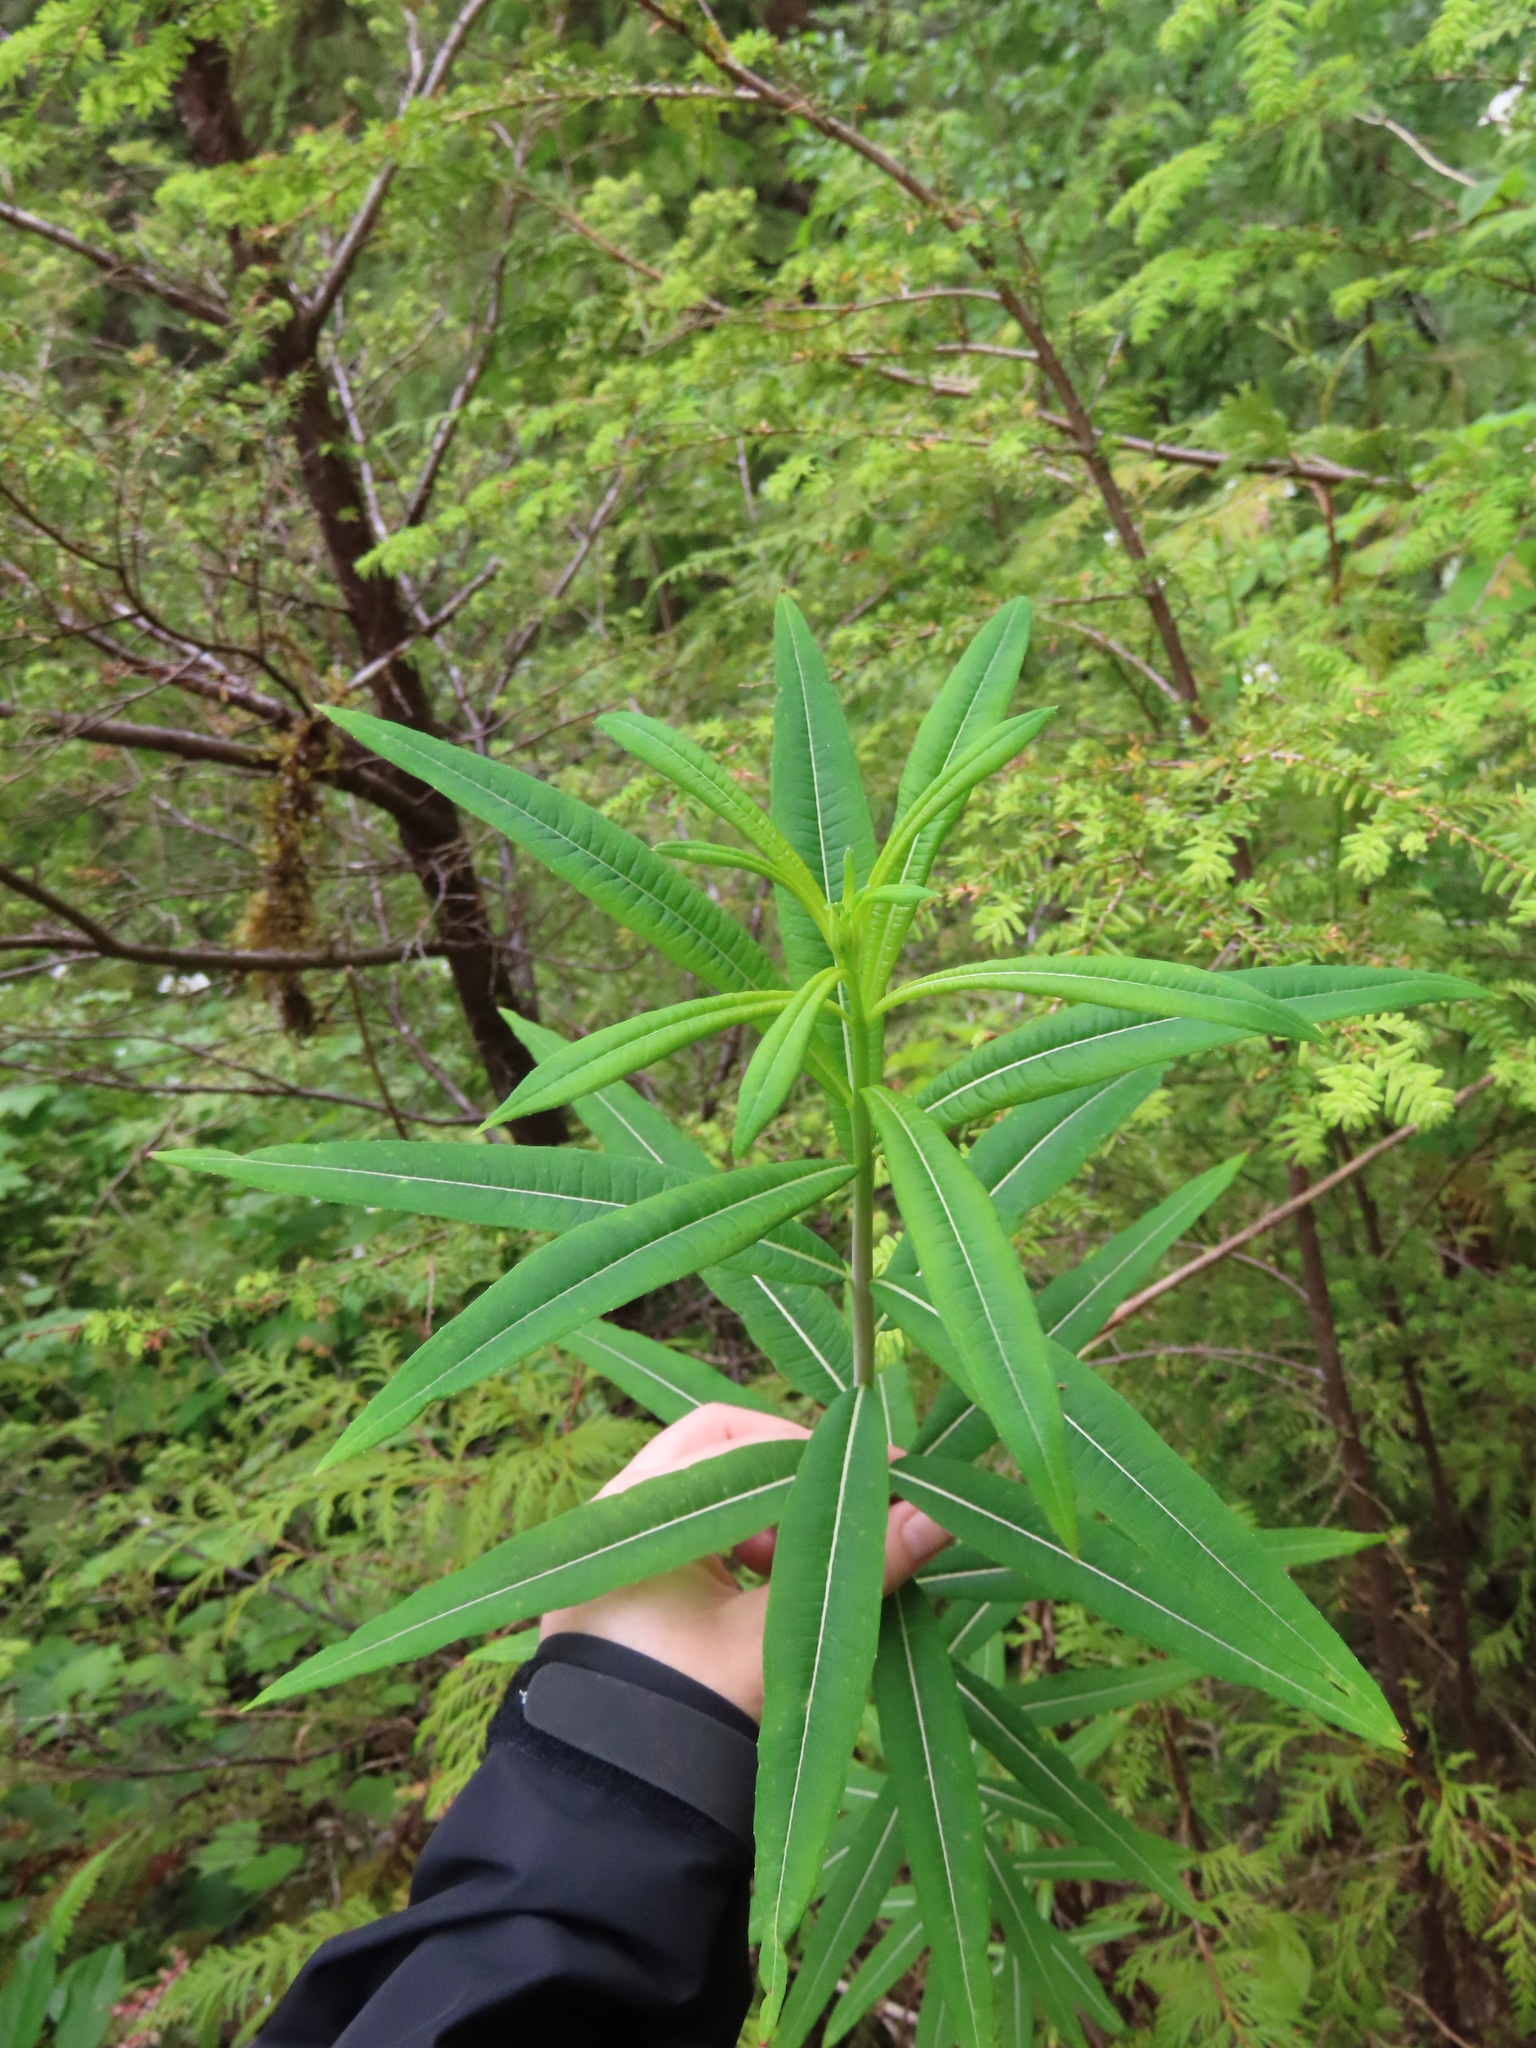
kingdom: Plantae
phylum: Tracheophyta
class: Magnoliopsida
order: Myrtales
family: Onagraceae
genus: Chamaenerion
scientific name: Chamaenerion angustifolium
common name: Fireweed
